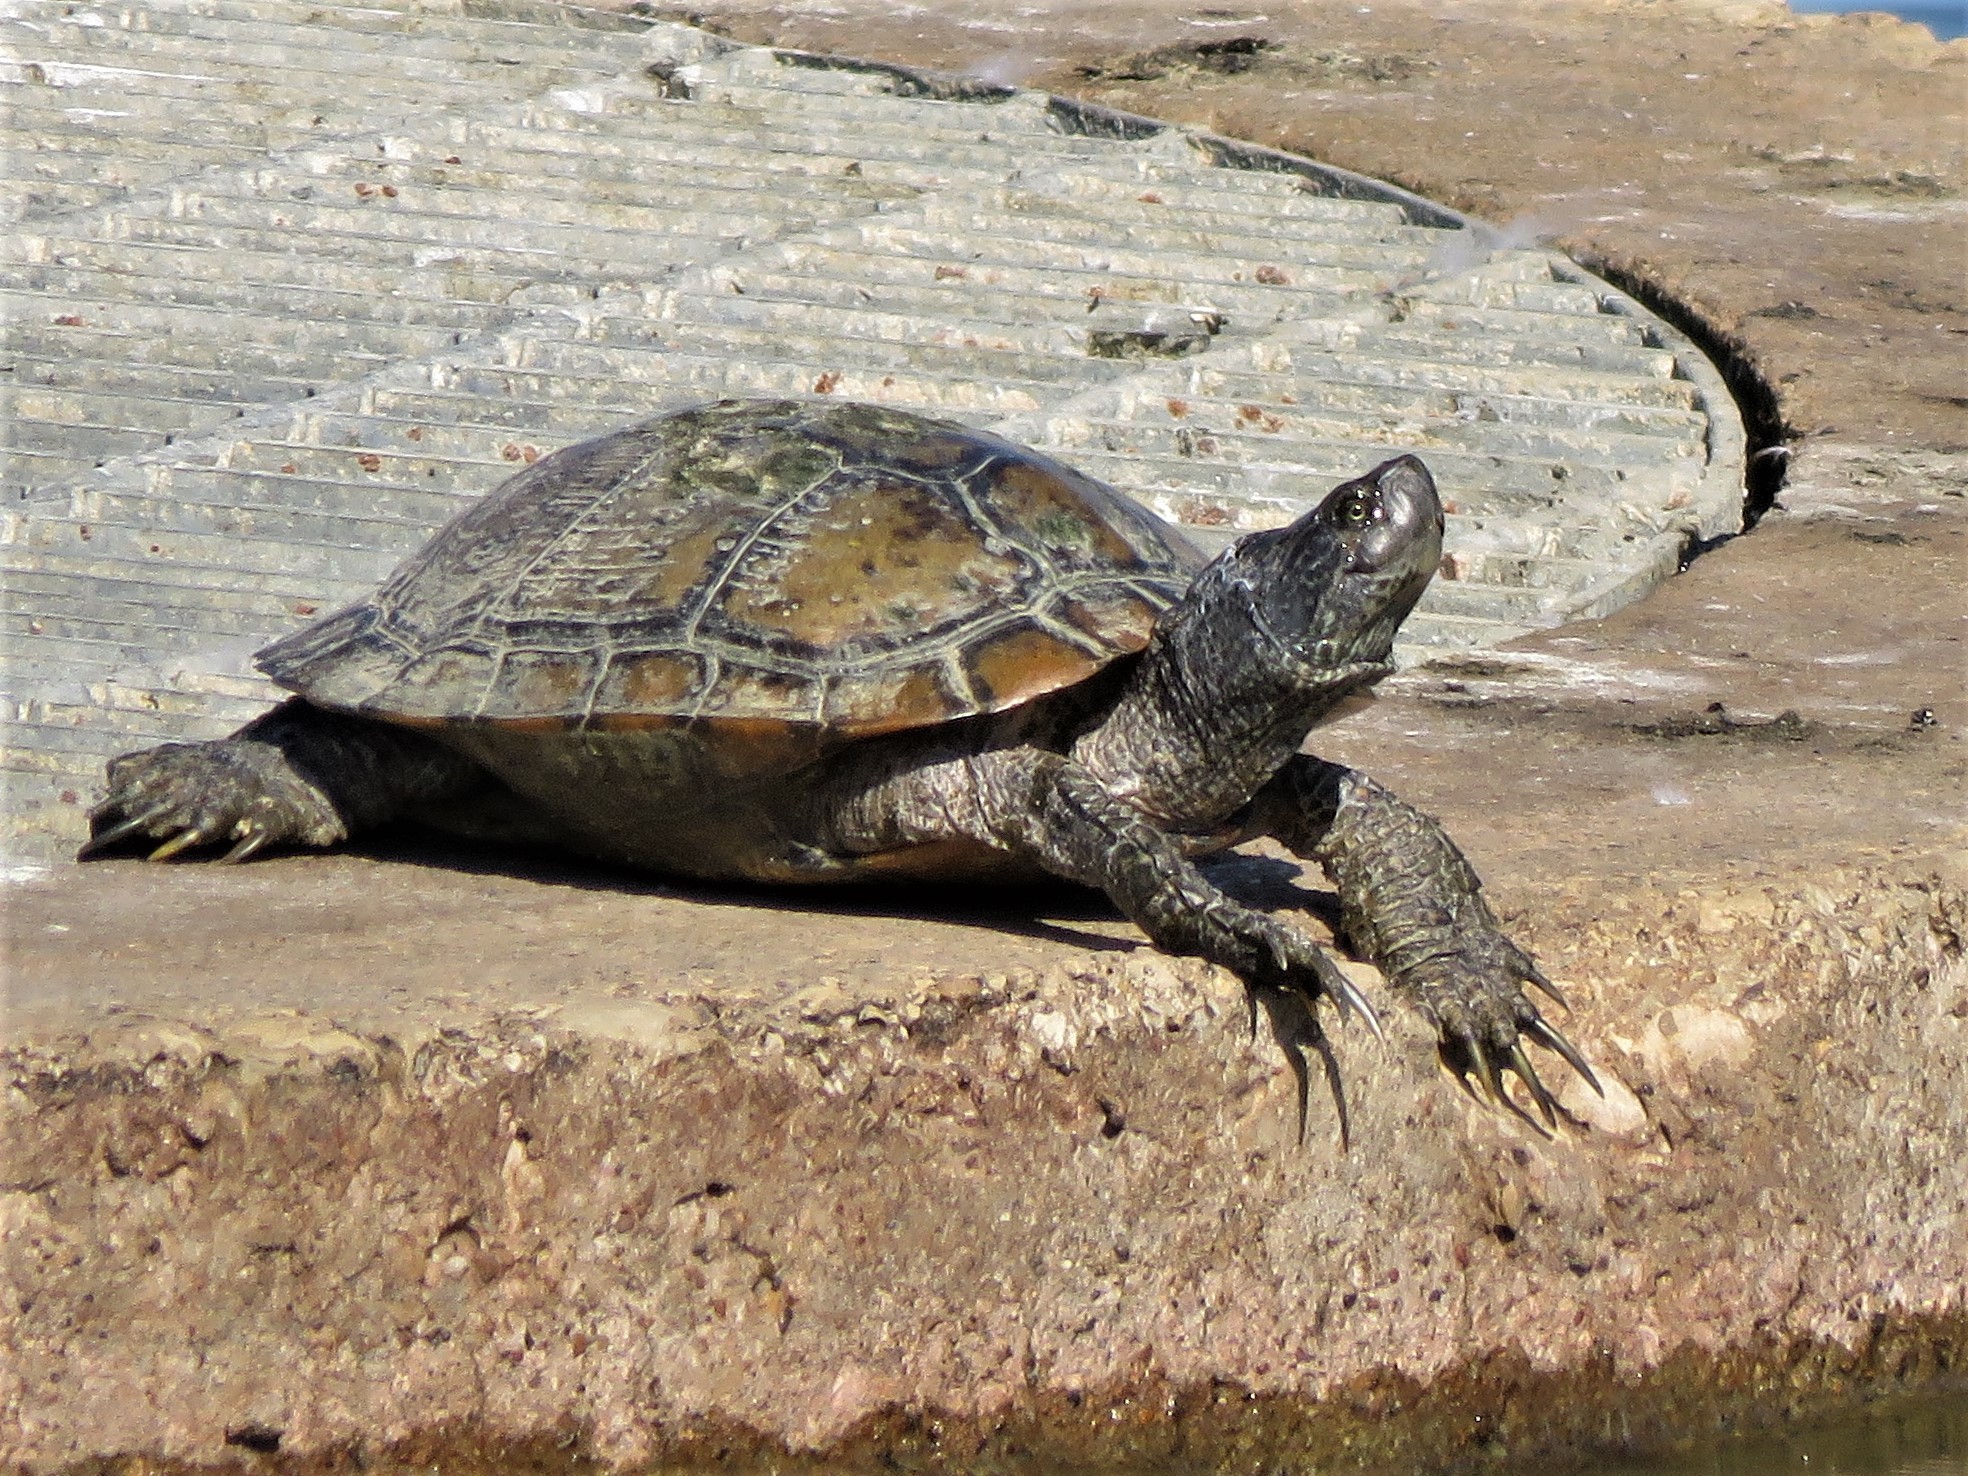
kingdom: Animalia
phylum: Chordata
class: Testudines
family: Emydidae
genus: Trachemys
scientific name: Trachemys scripta
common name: Slider
